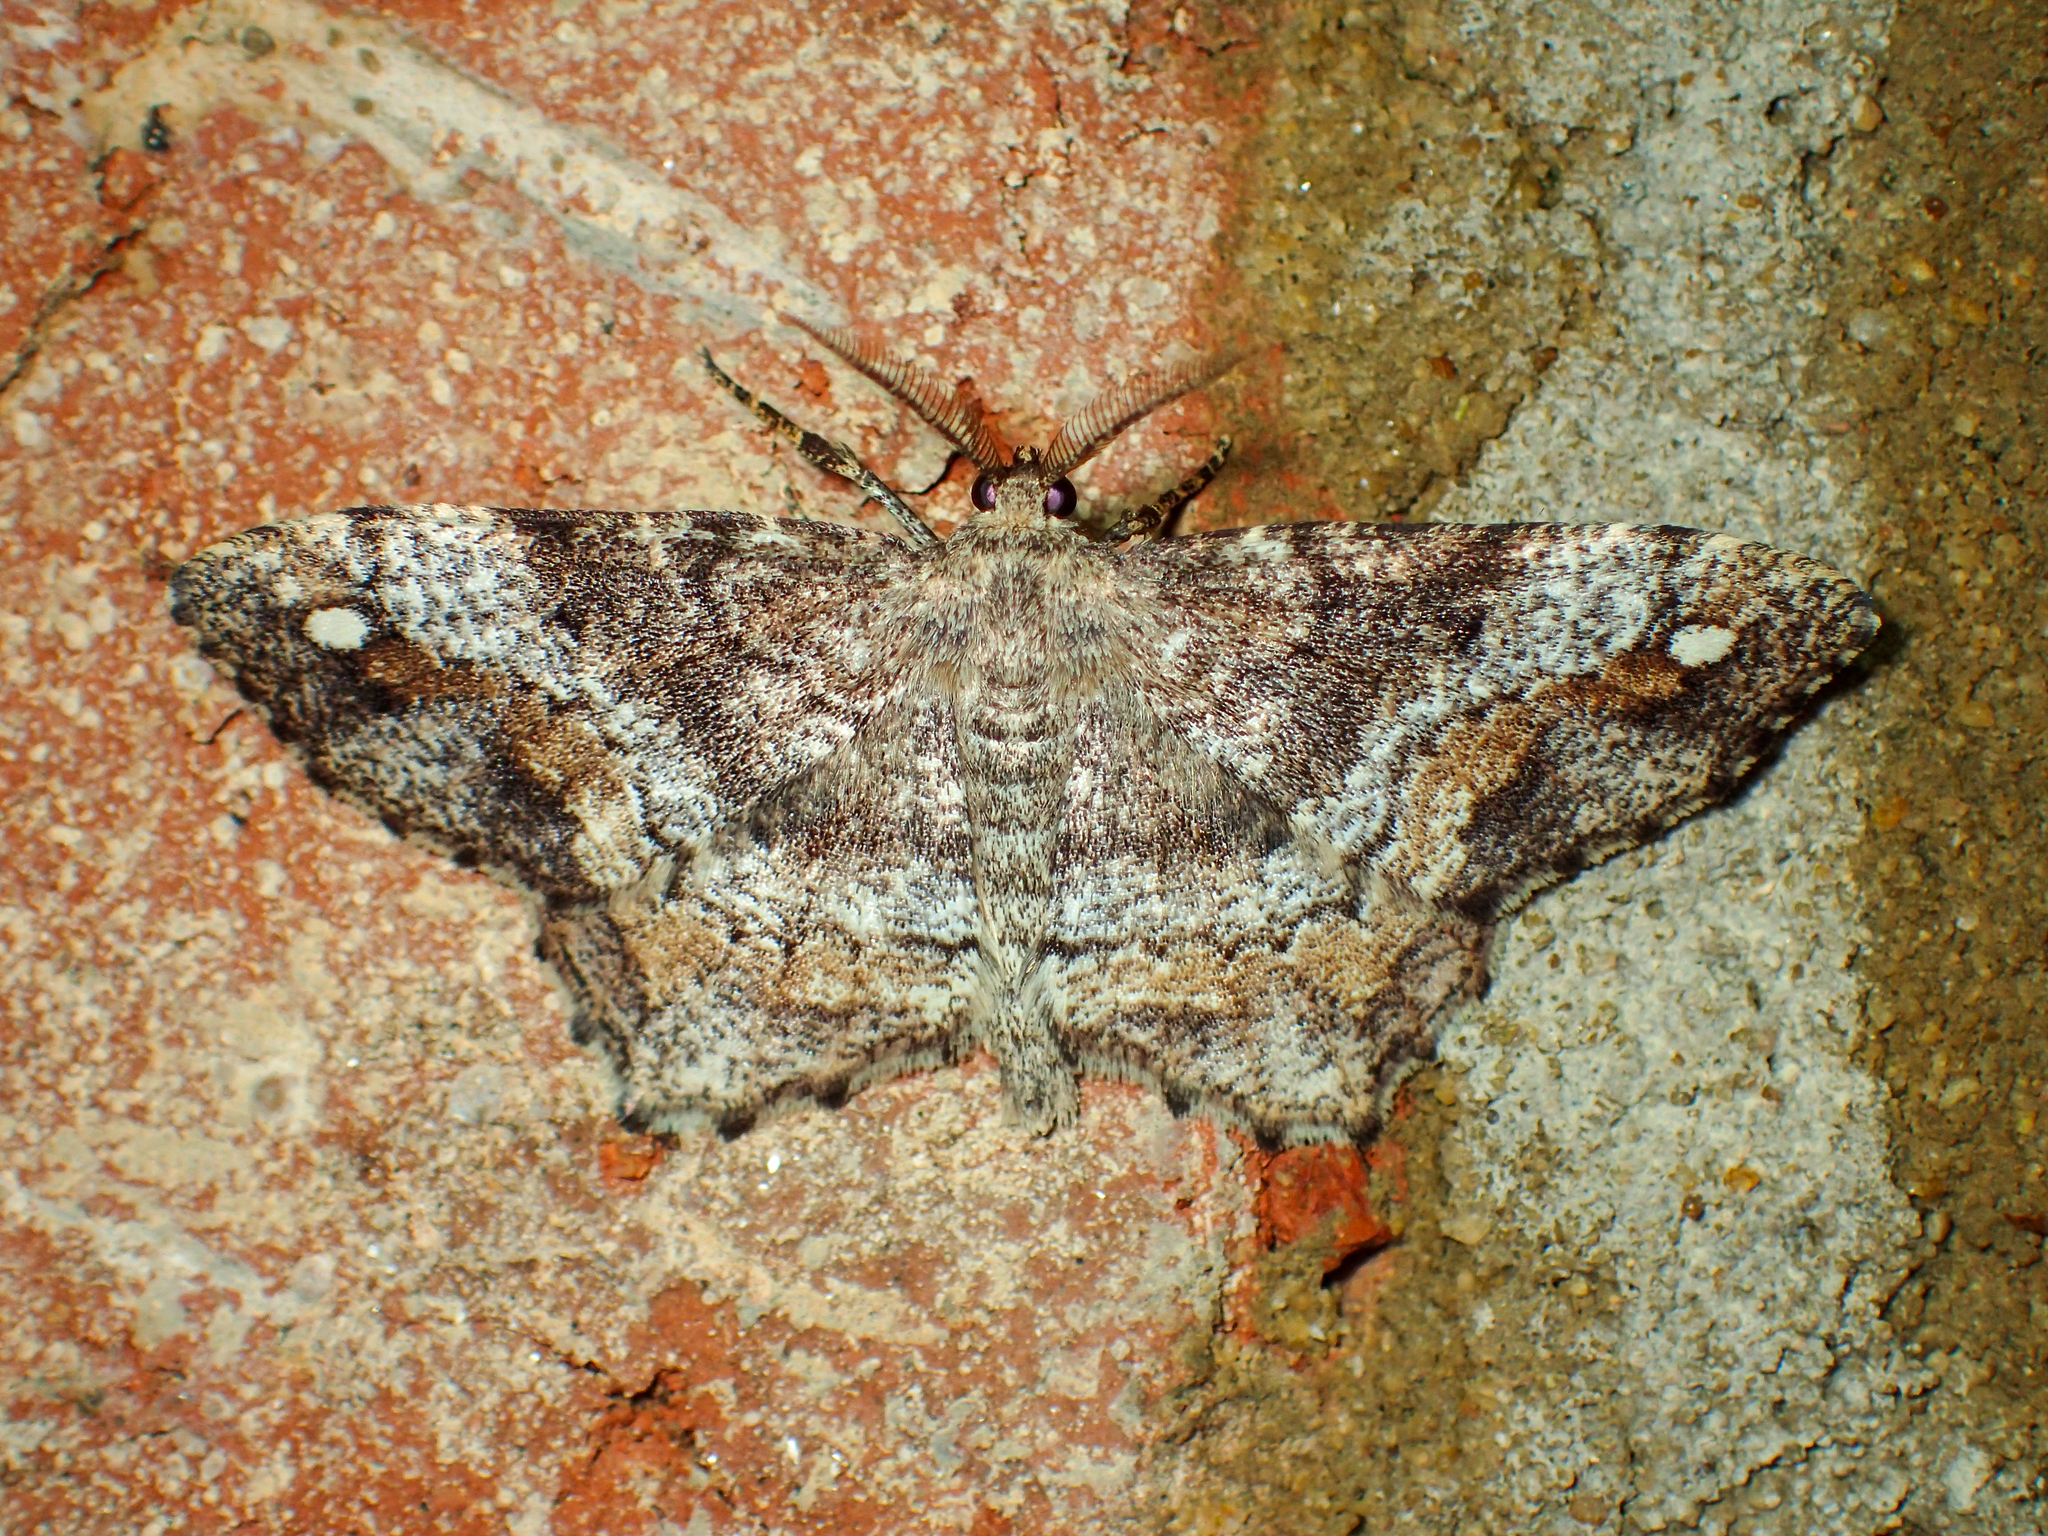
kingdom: Animalia
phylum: Arthropoda
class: Insecta
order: Lepidoptera
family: Geometridae
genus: Hypagyrtis
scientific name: Hypagyrtis unipunctata
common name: One-spotted variant
